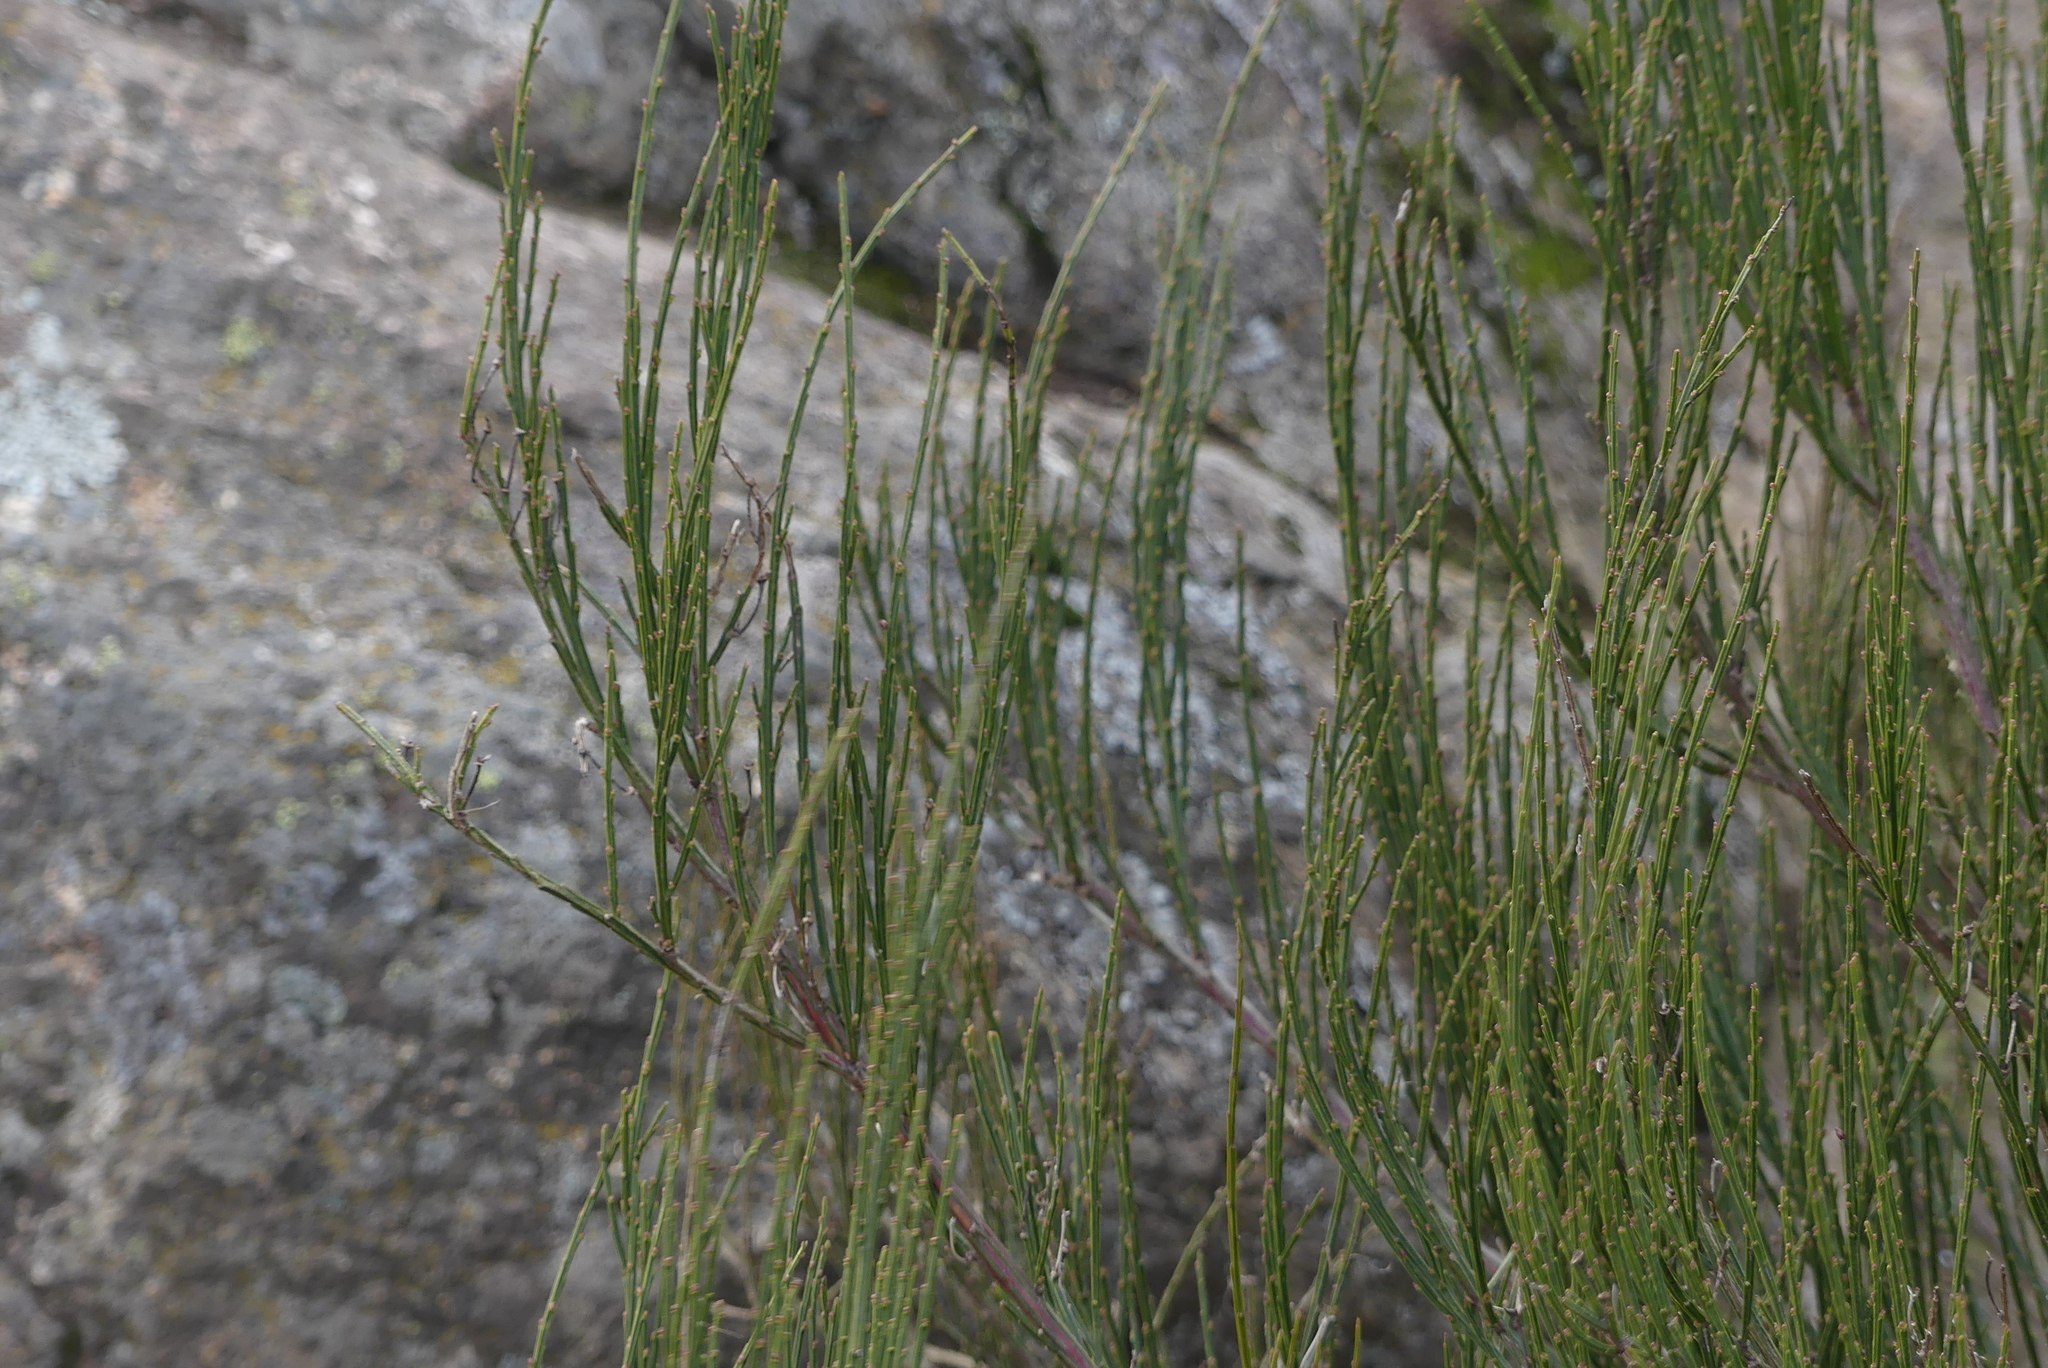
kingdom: Plantae
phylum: Tracheophyta
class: Magnoliopsida
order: Fabales
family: Fabaceae
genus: Cytisus
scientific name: Cytisus scoparius
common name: Scotch broom
